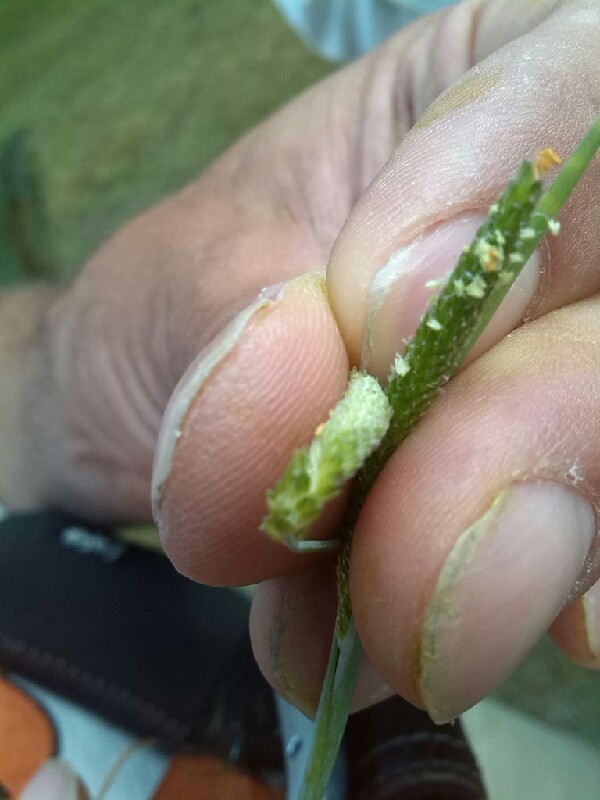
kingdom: Plantae
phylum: Tracheophyta
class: Liliopsida
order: Poales
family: Poaceae
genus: Alopecurus
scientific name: Alopecurus aequalis
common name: Orange foxtail
